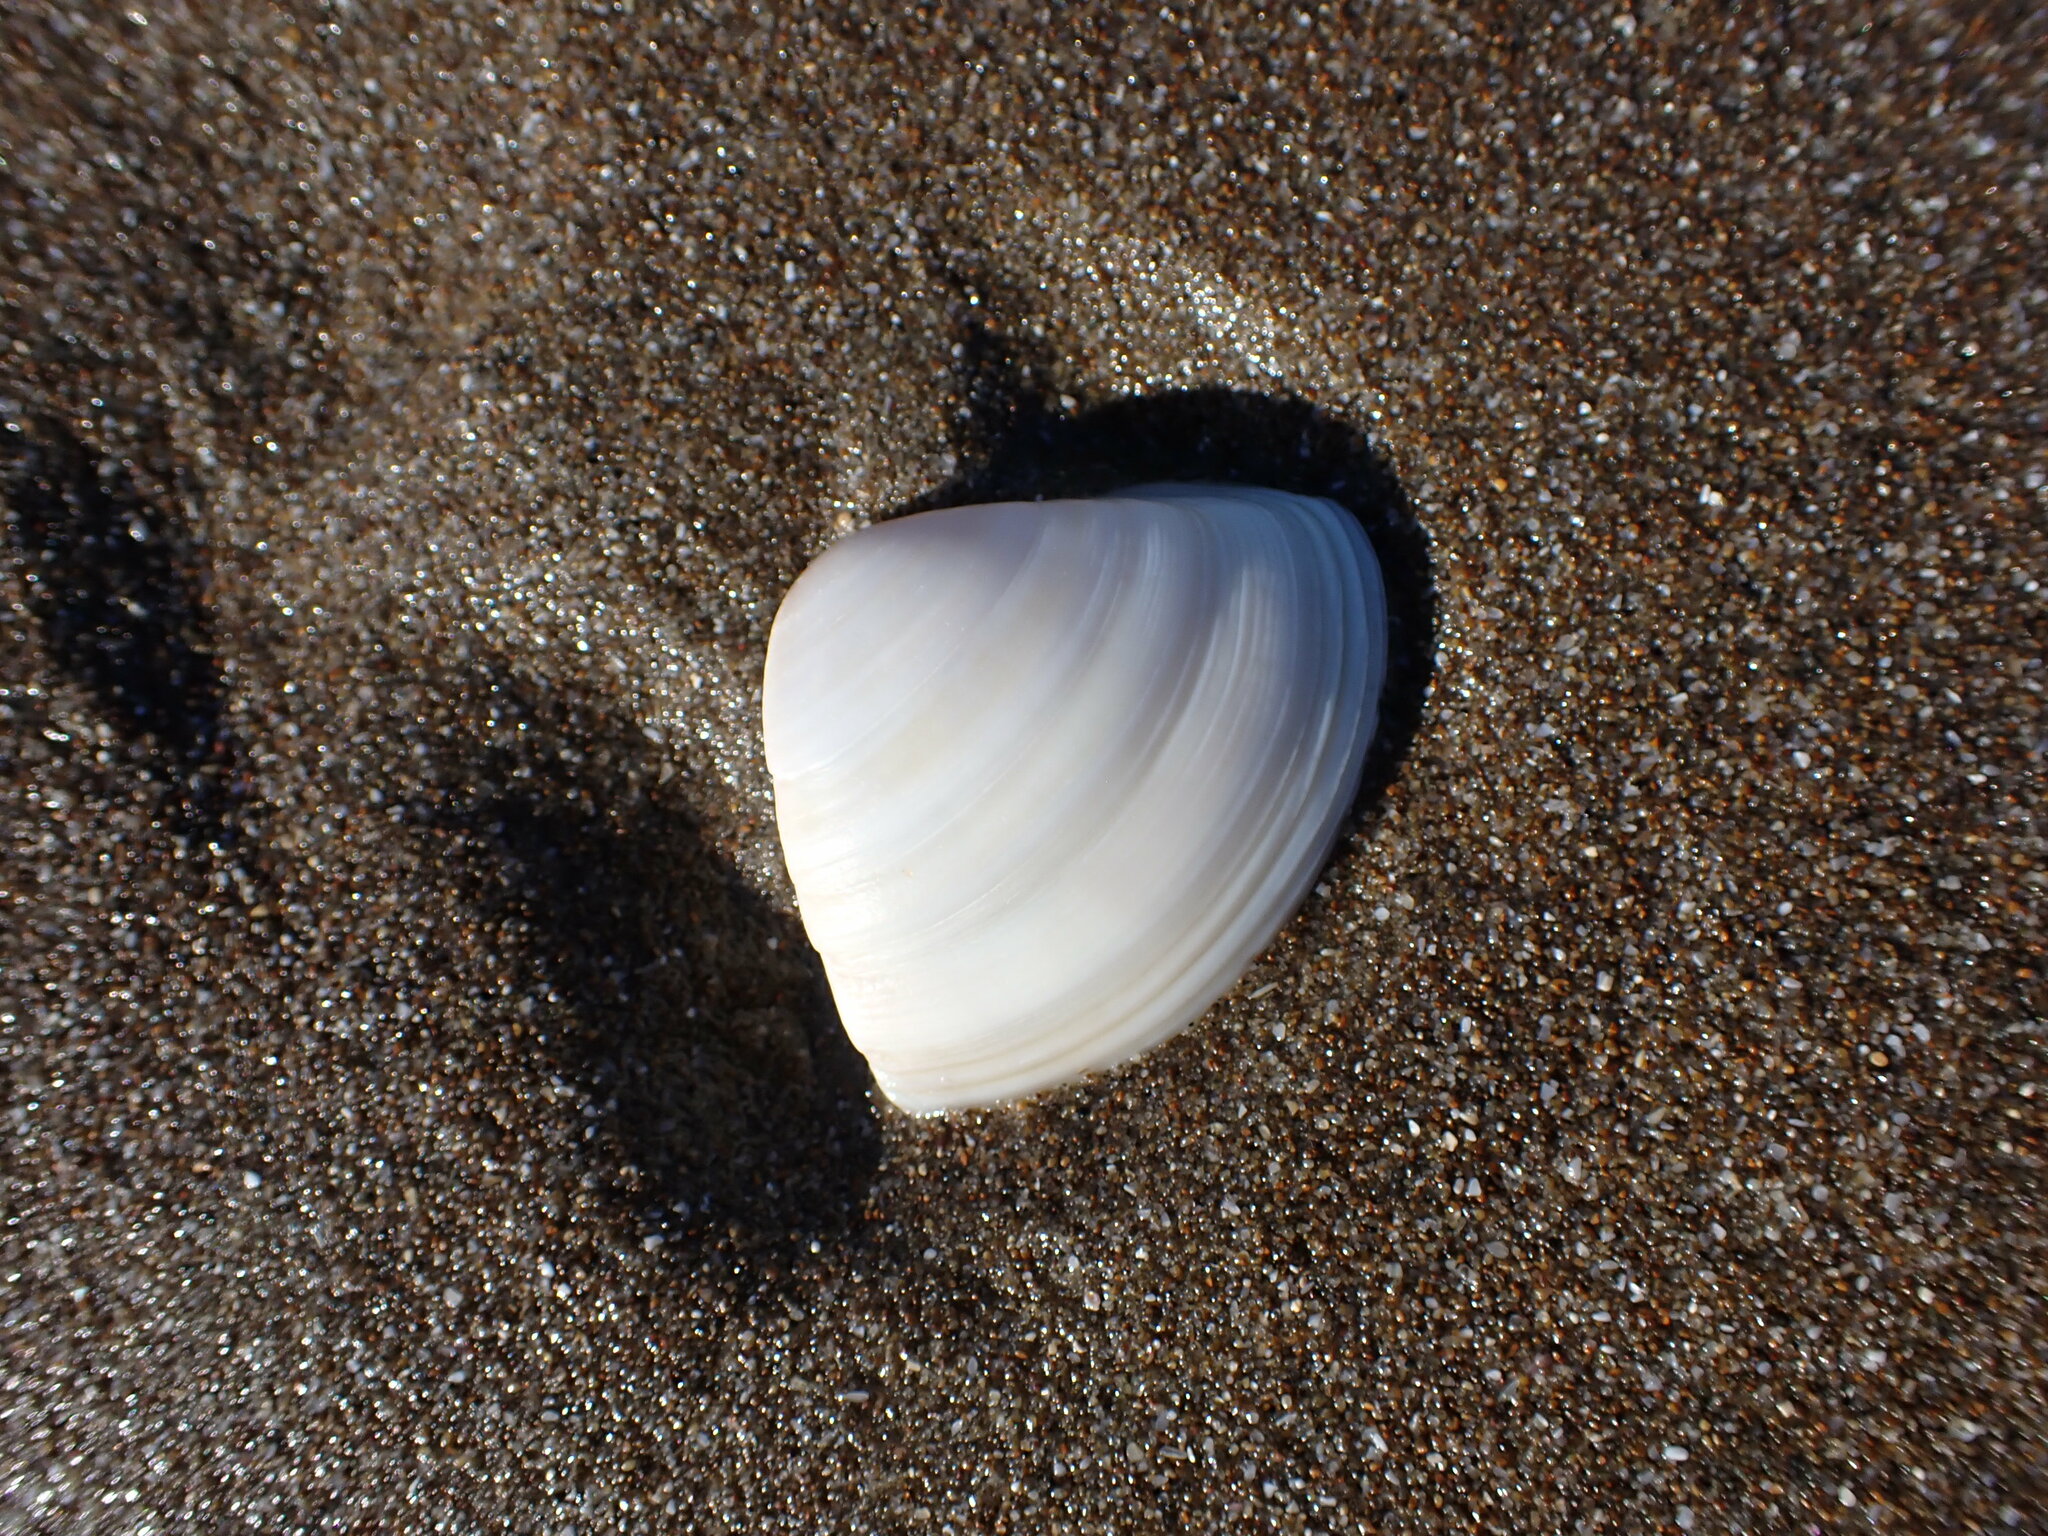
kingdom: Animalia
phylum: Mollusca
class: Bivalvia
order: Venerida
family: Mactridae
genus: Crassula
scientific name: Crassula aequilatera
